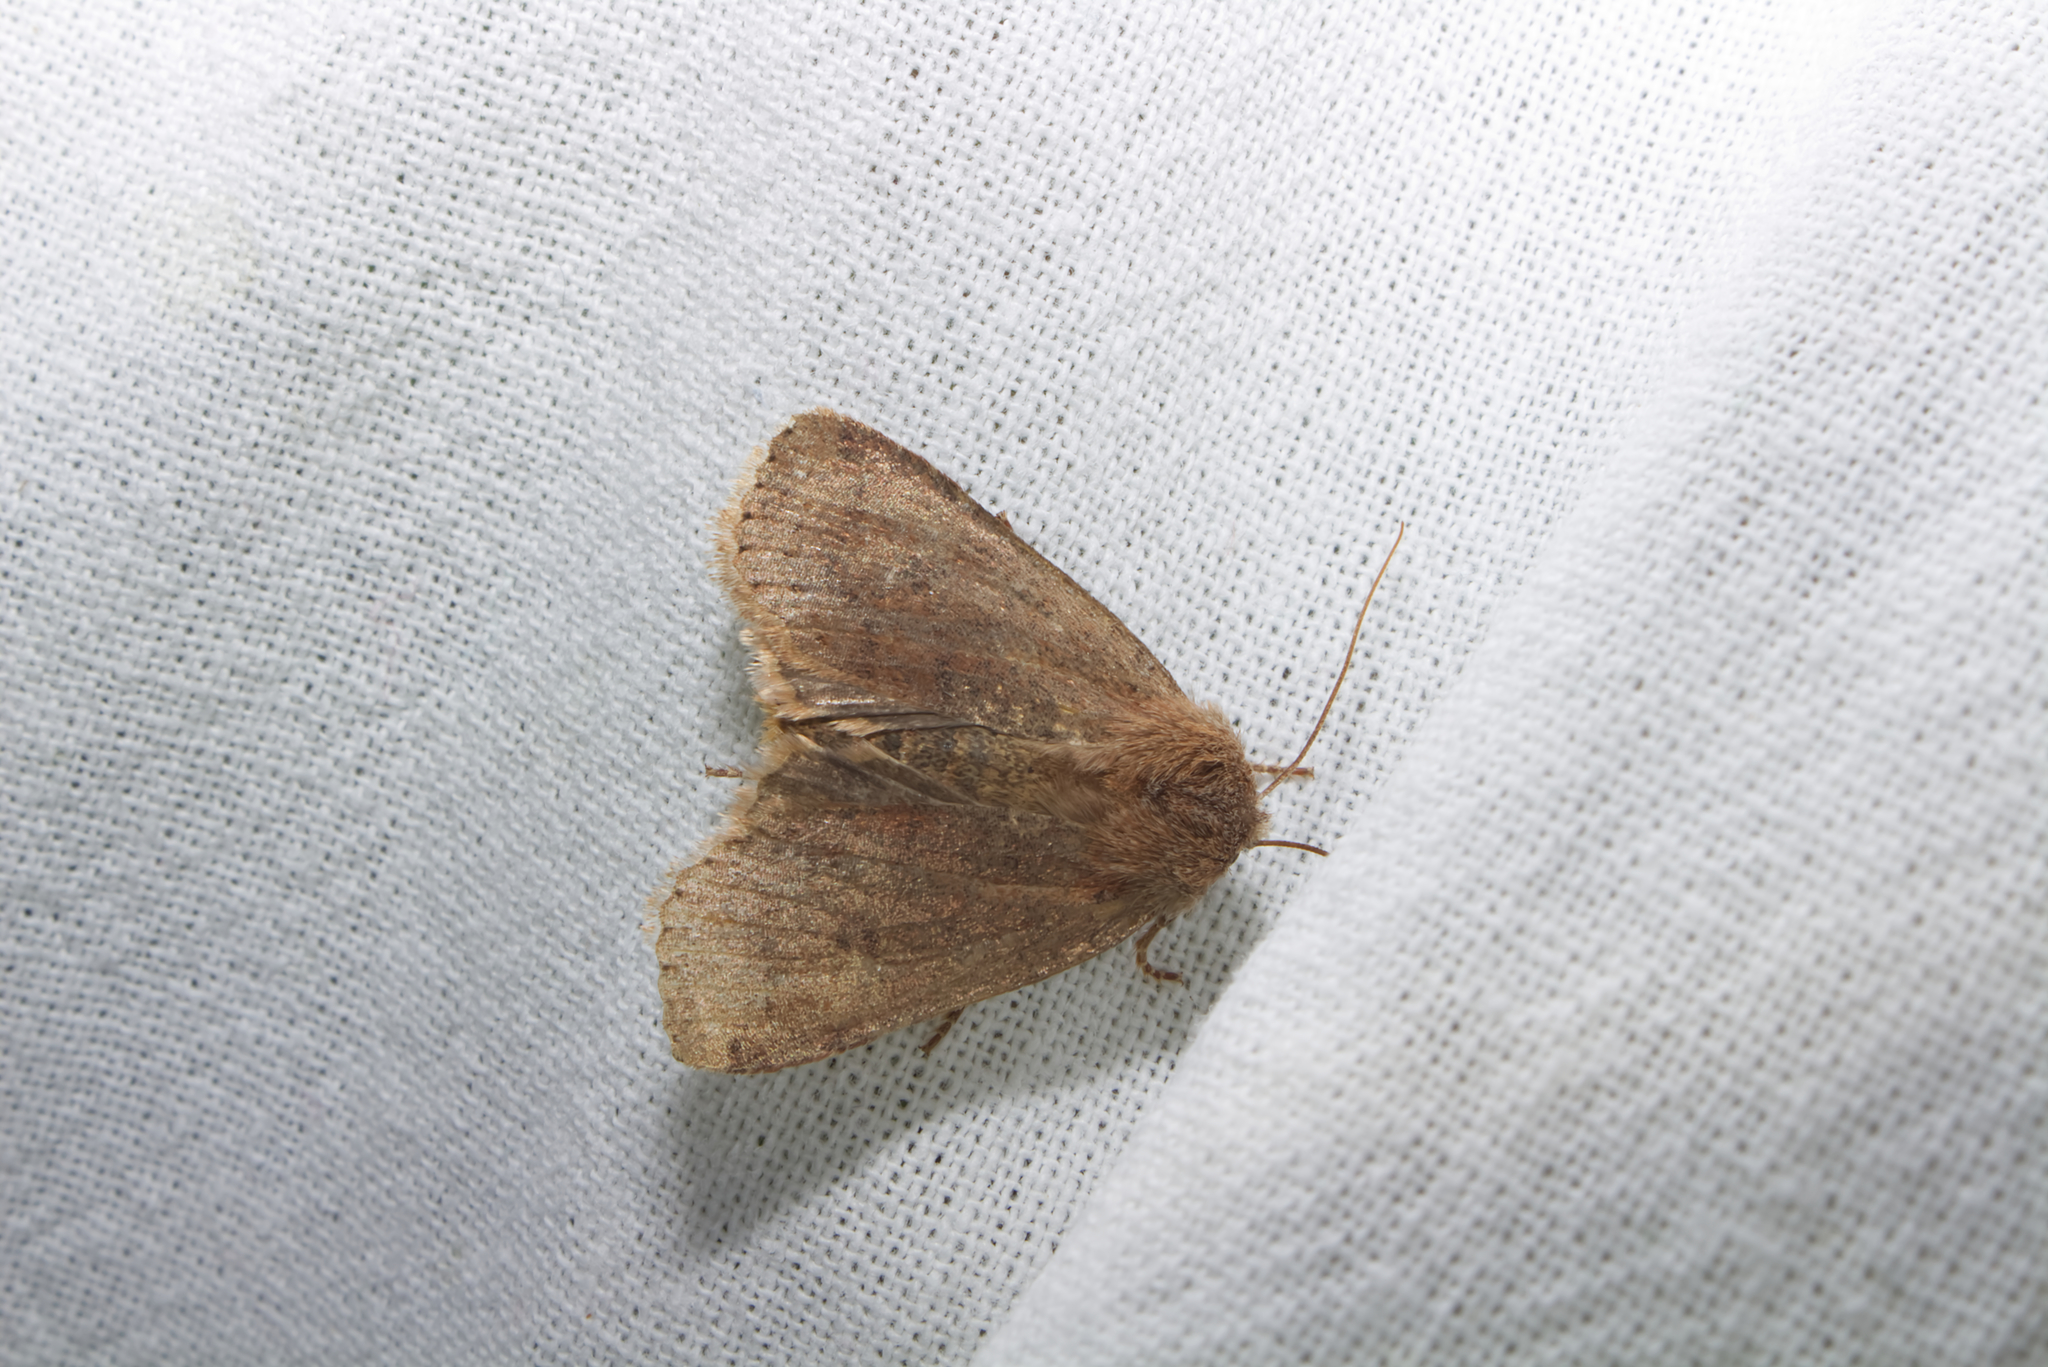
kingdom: Animalia
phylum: Arthropoda
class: Insecta
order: Lepidoptera
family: Noctuidae
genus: Conistra
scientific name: Conistra vaccinii
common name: Chestnut
